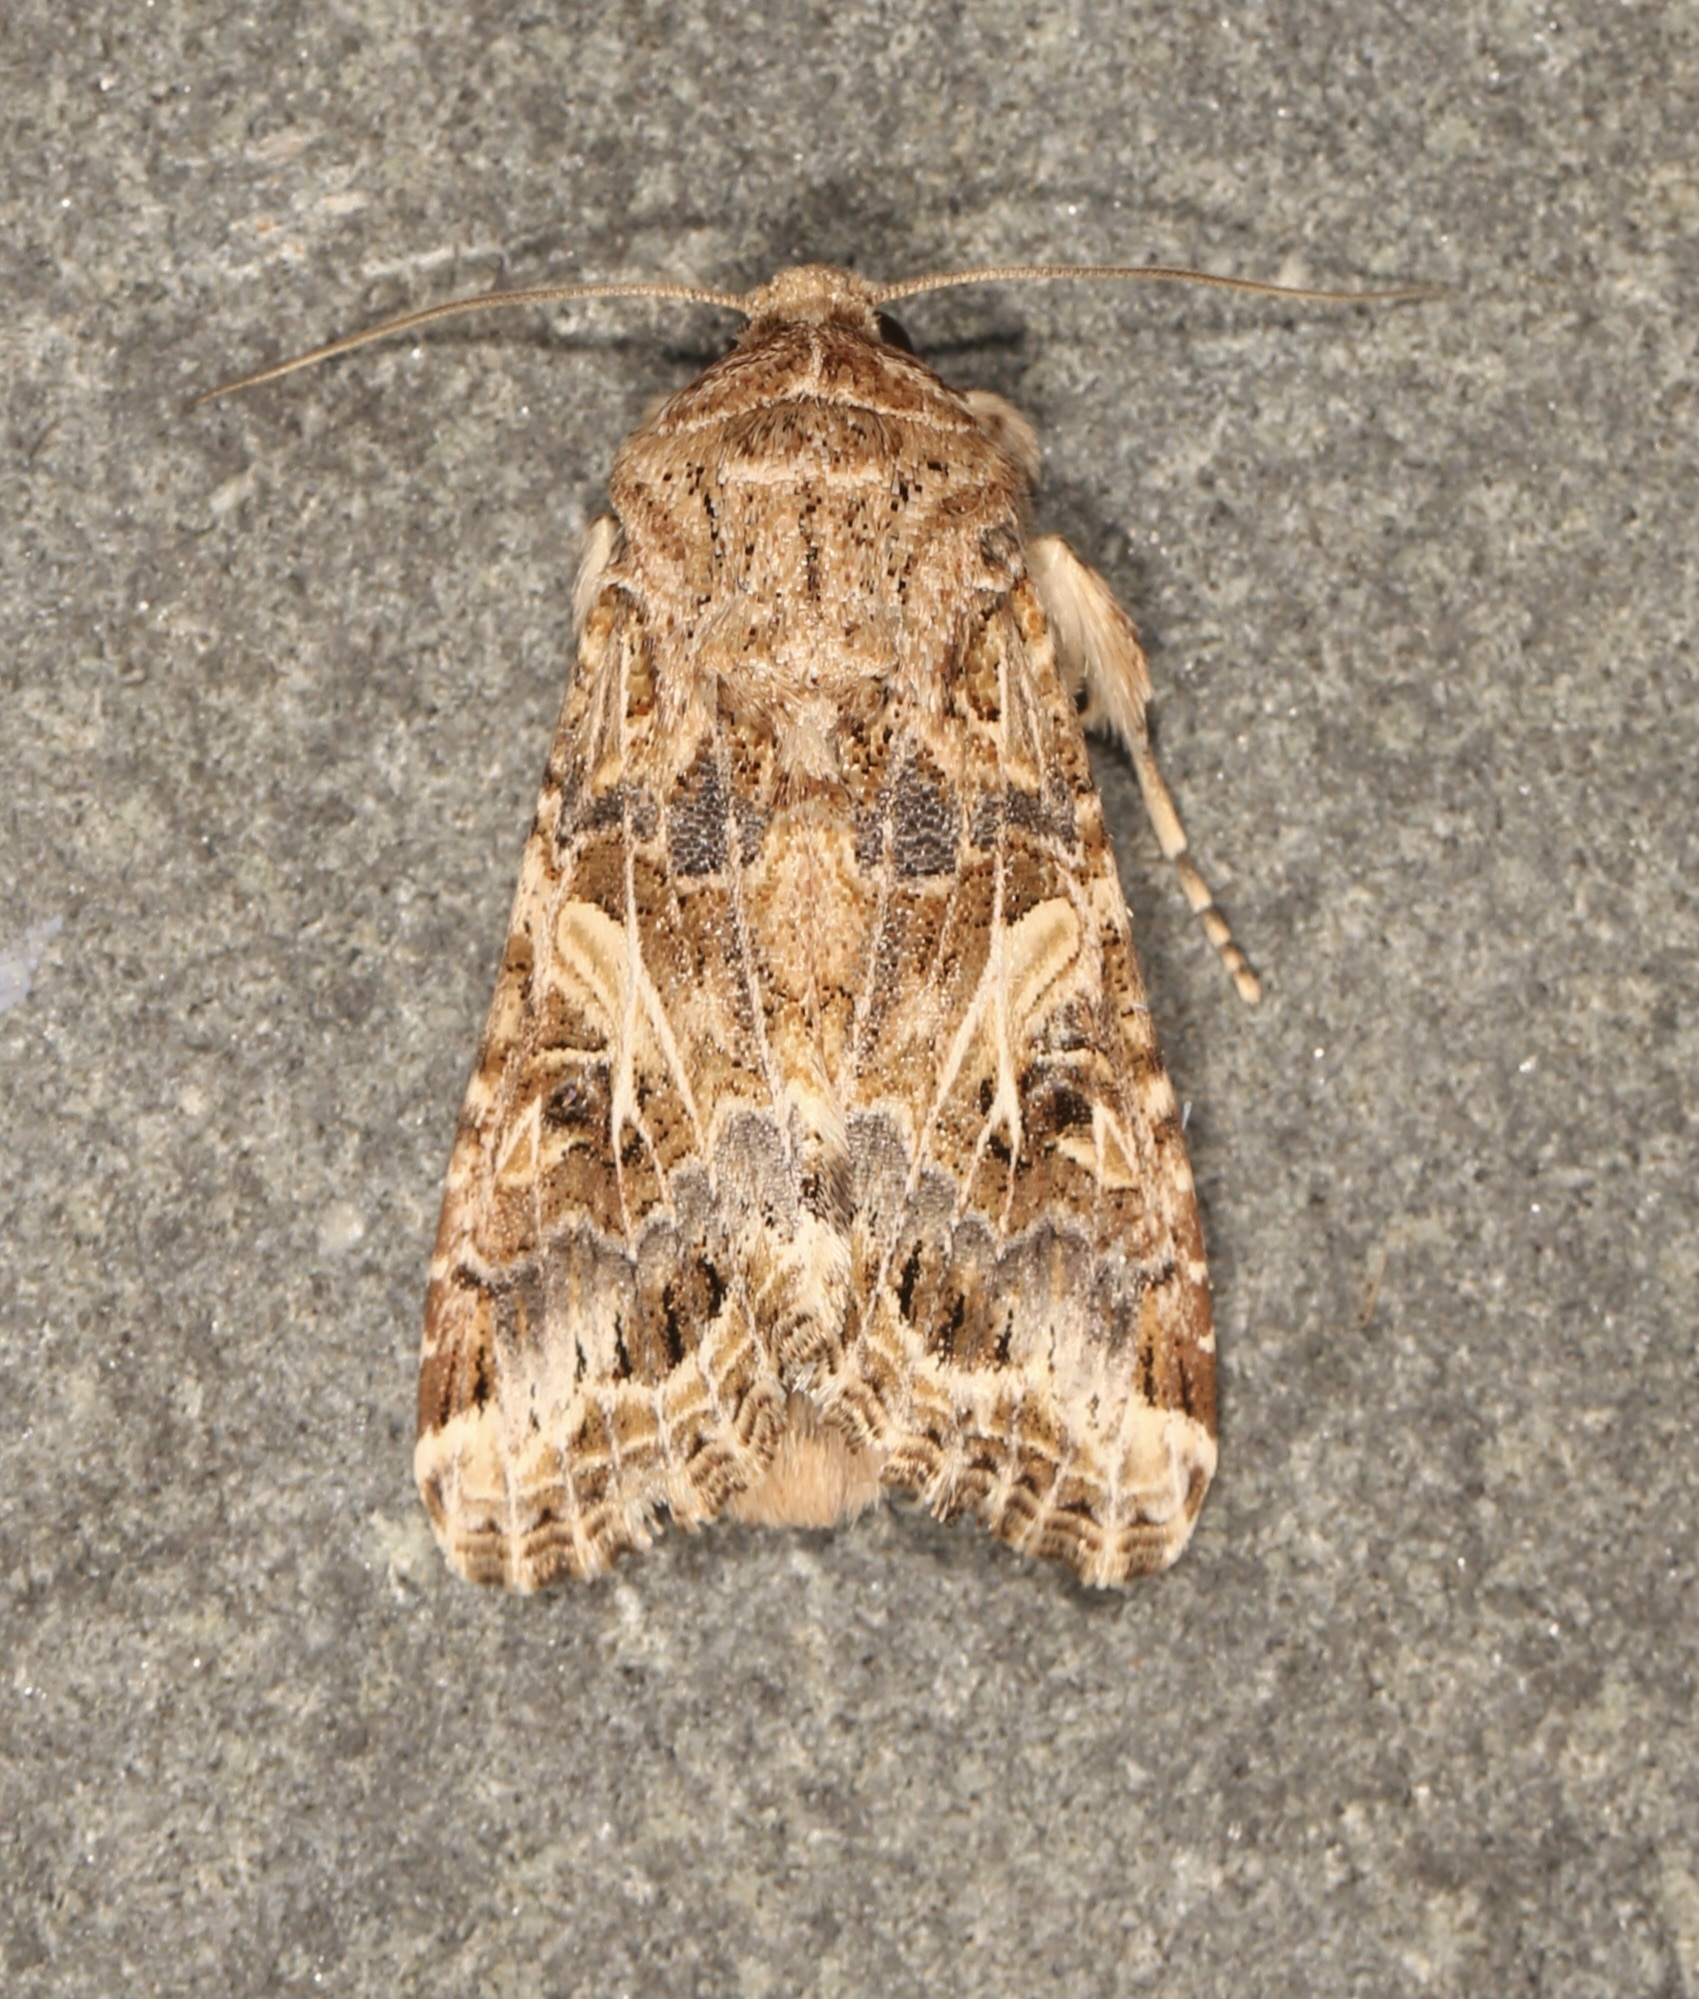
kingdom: Animalia
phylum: Arthropoda
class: Insecta
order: Lepidoptera
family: Noctuidae
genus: Spodoptera
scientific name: Spodoptera praefica
